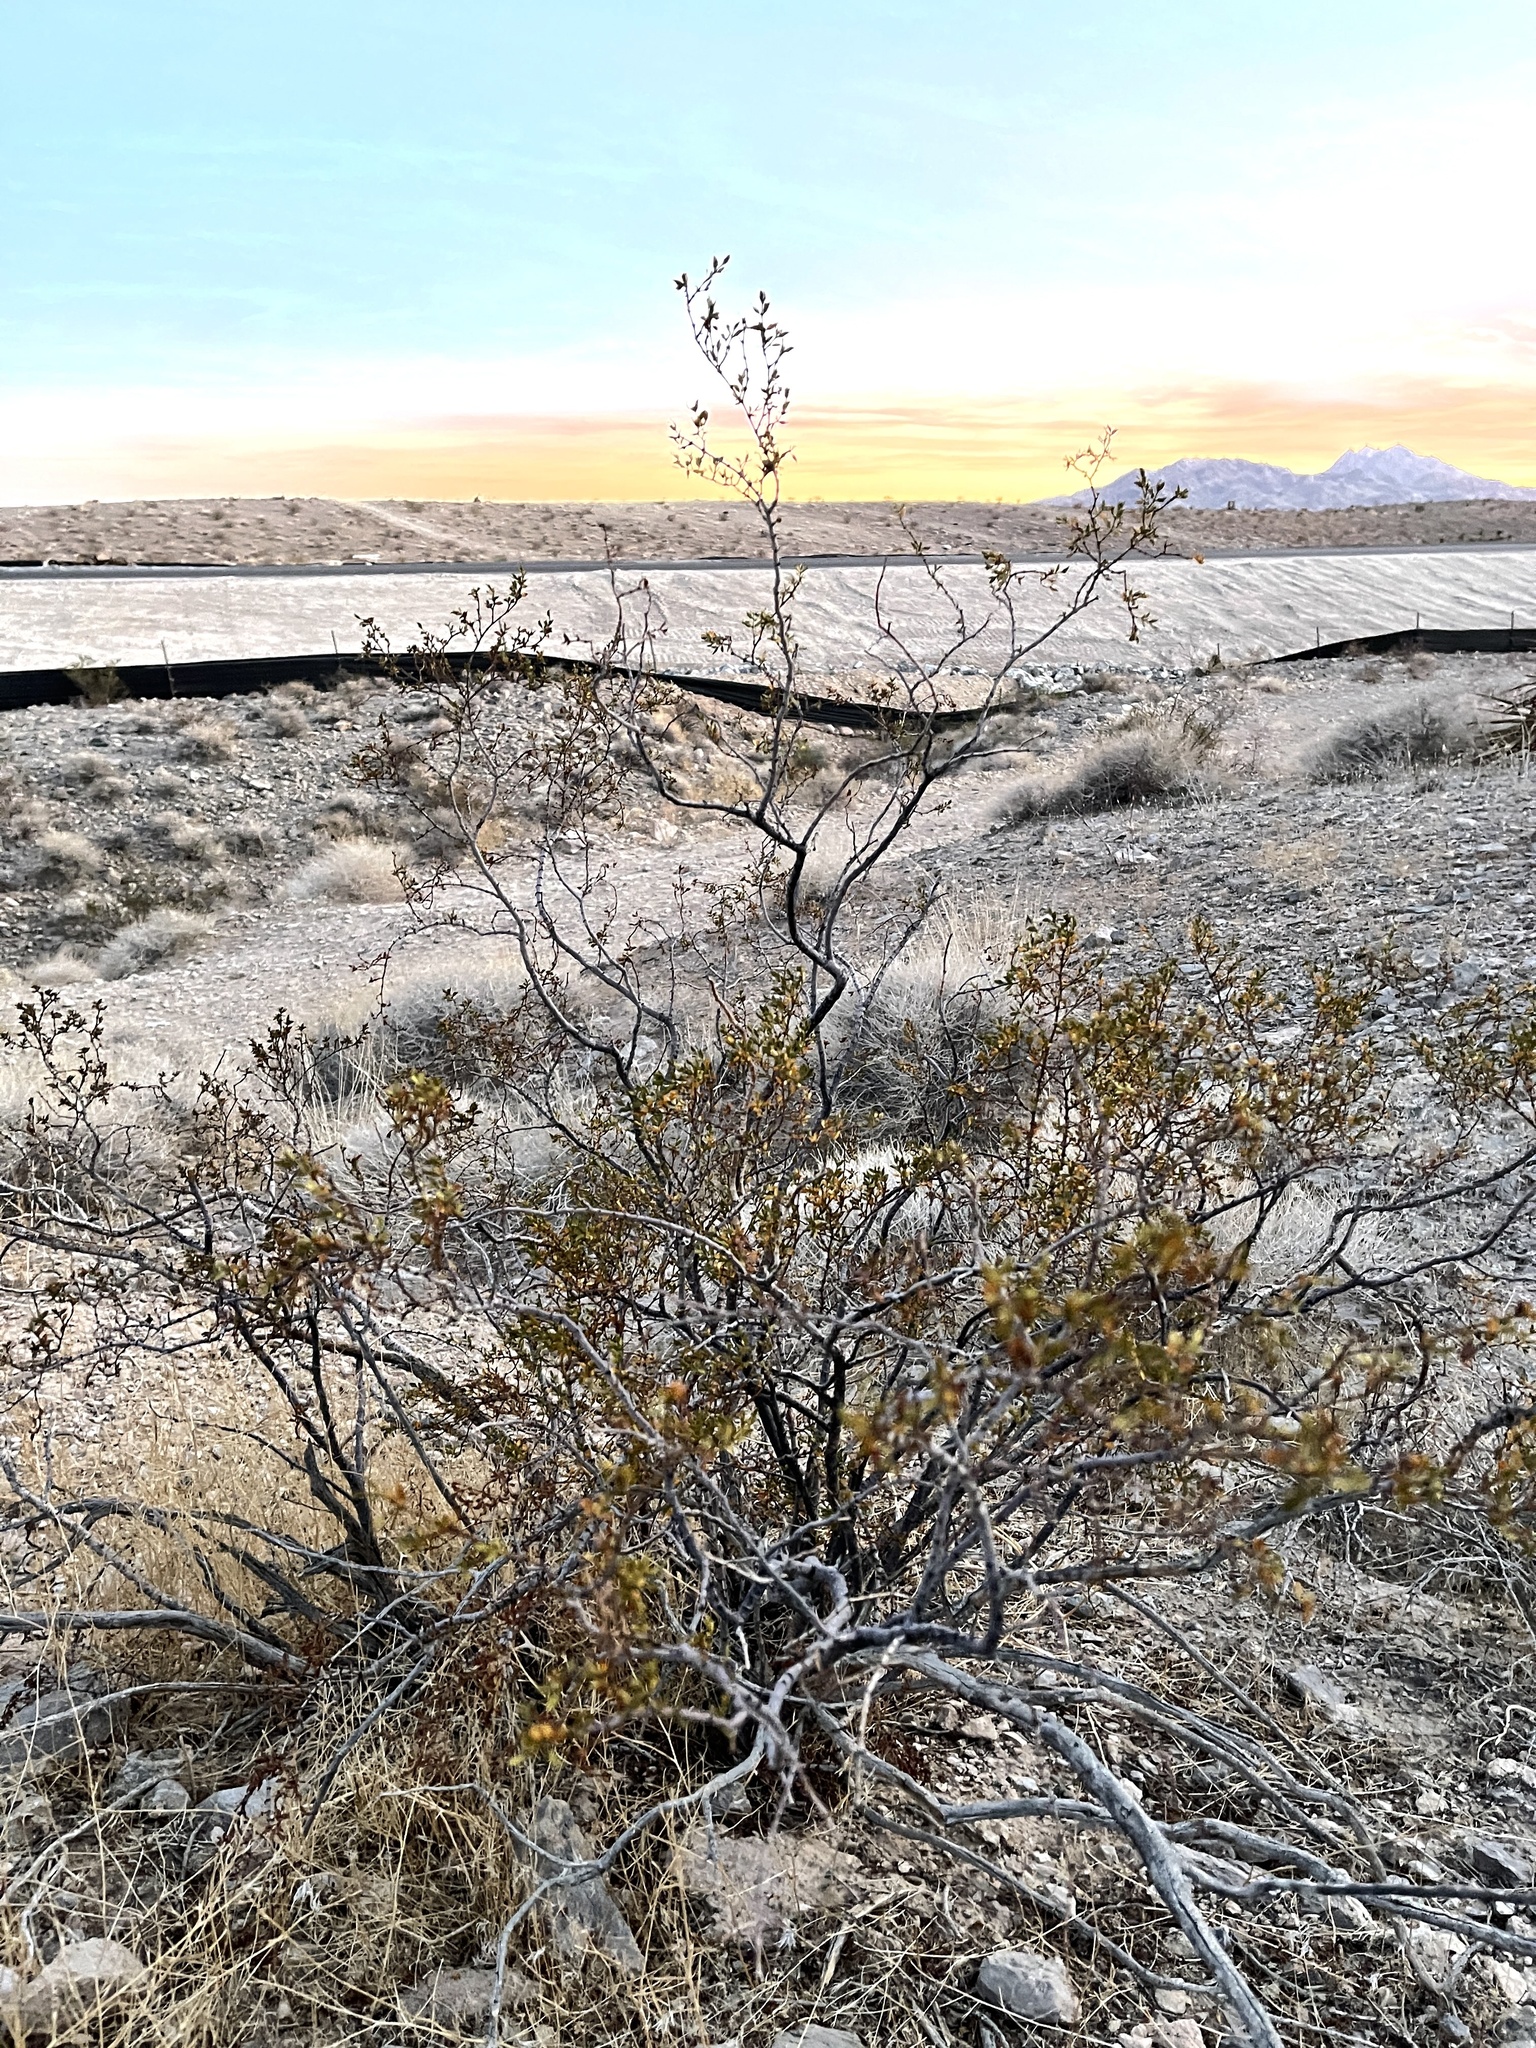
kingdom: Plantae
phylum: Tracheophyta
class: Magnoliopsida
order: Zygophyllales
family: Zygophyllaceae
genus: Larrea
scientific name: Larrea tridentata
